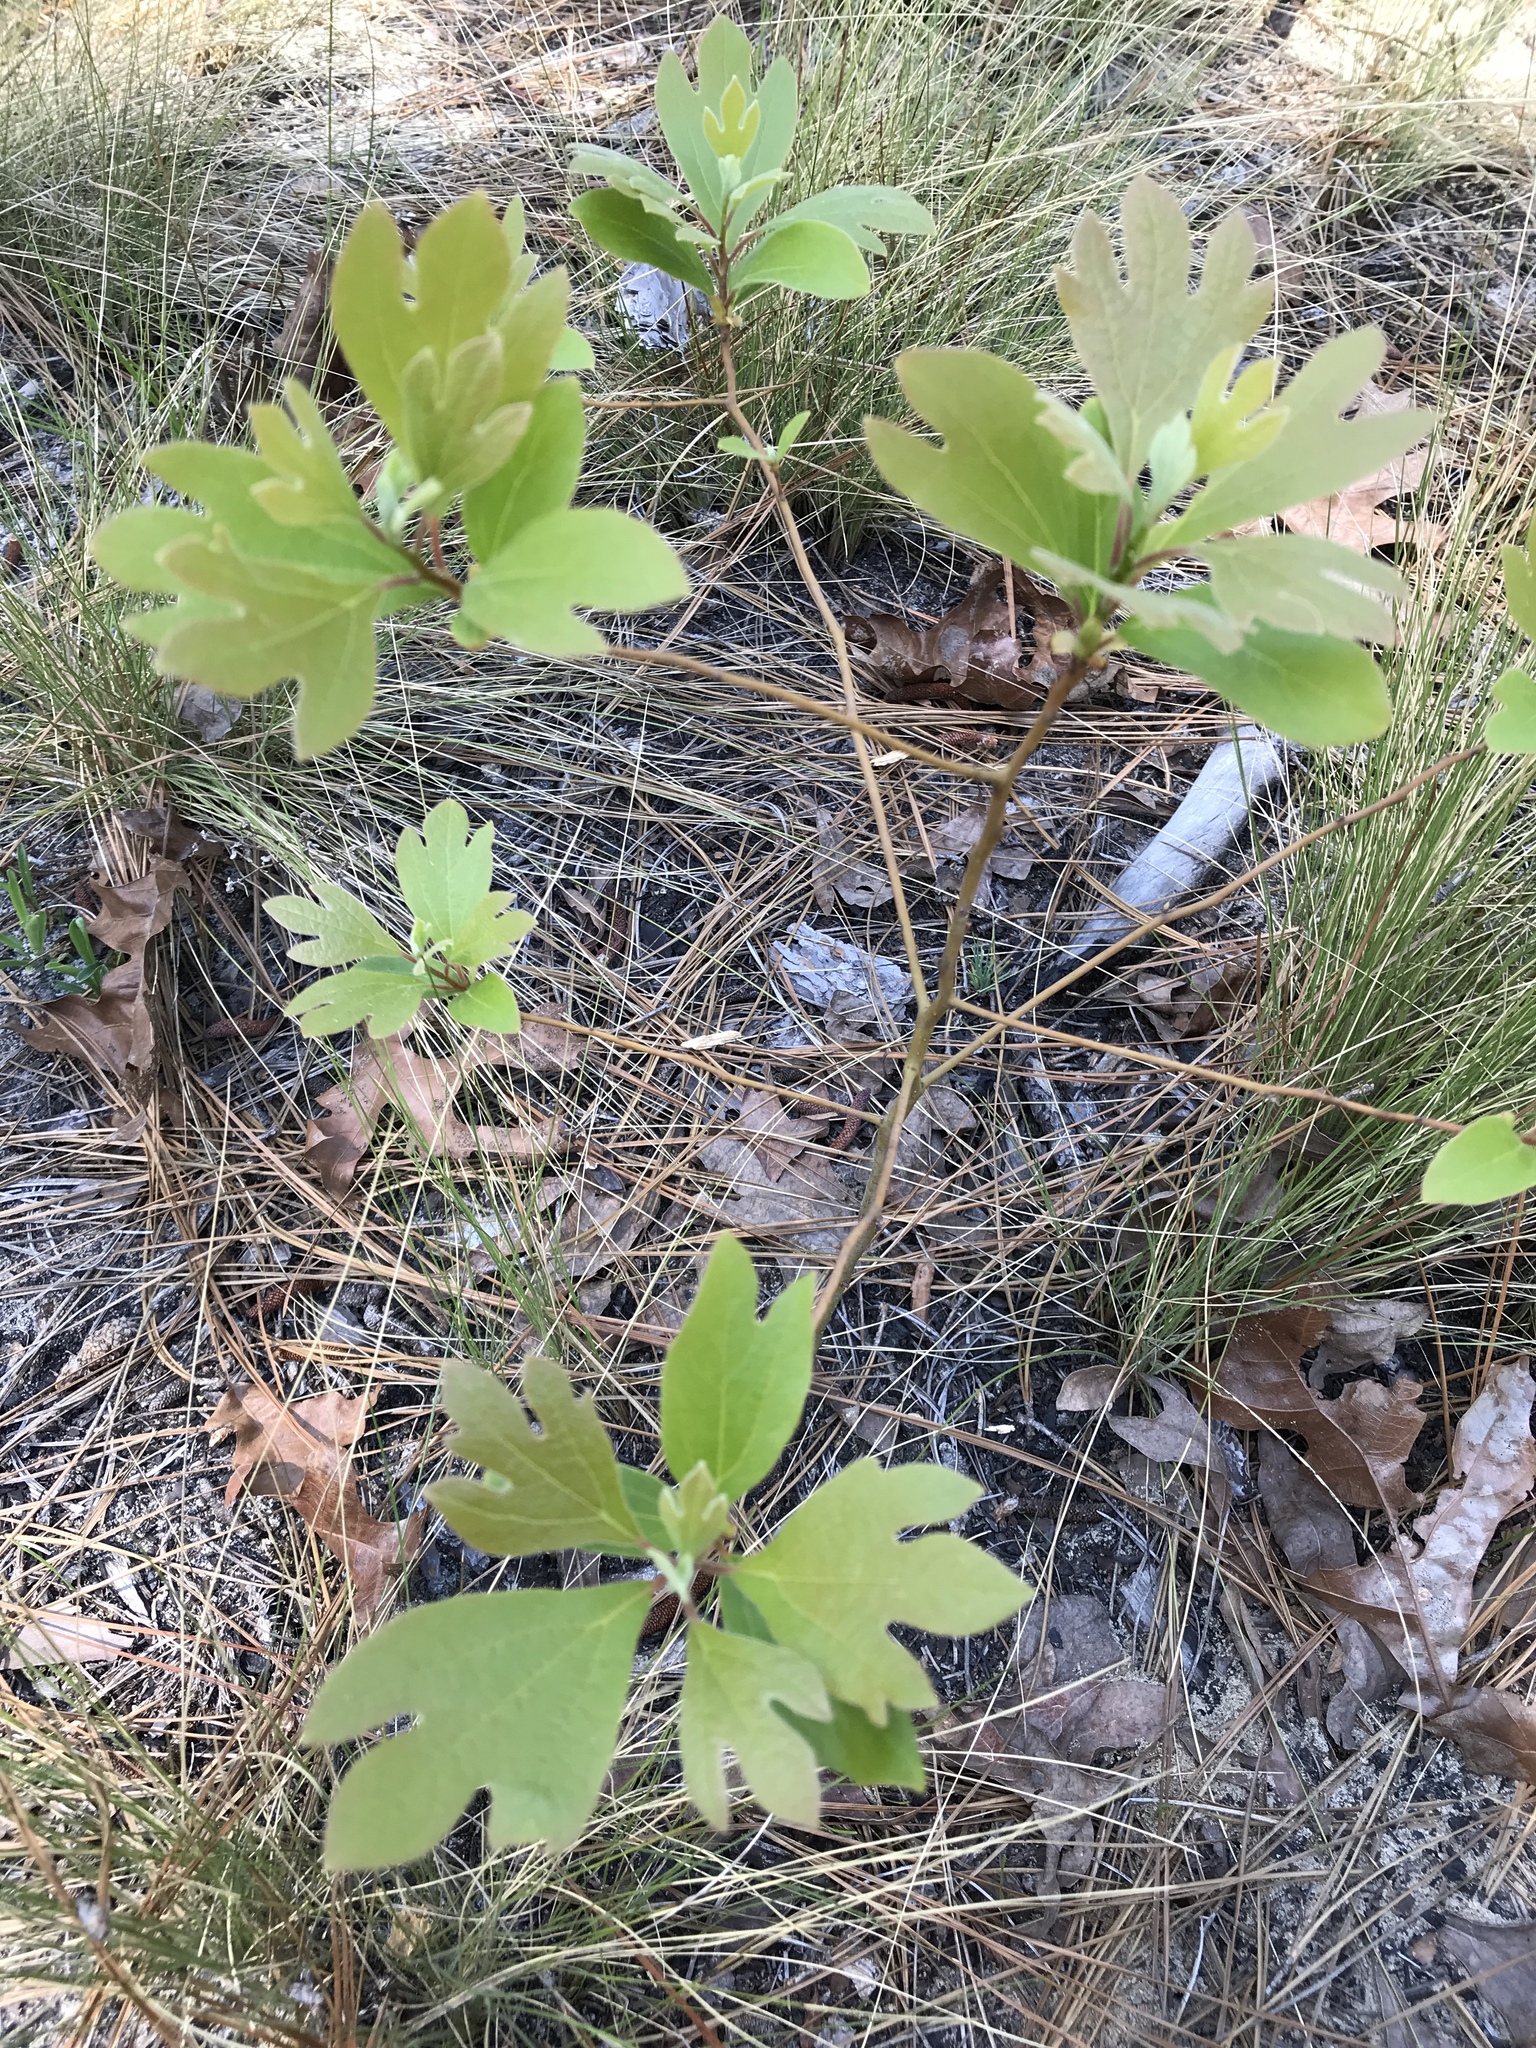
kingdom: Plantae
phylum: Tracheophyta
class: Magnoliopsida
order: Laurales
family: Lauraceae
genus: Sassafras
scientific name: Sassafras albidum
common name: Sassafras
